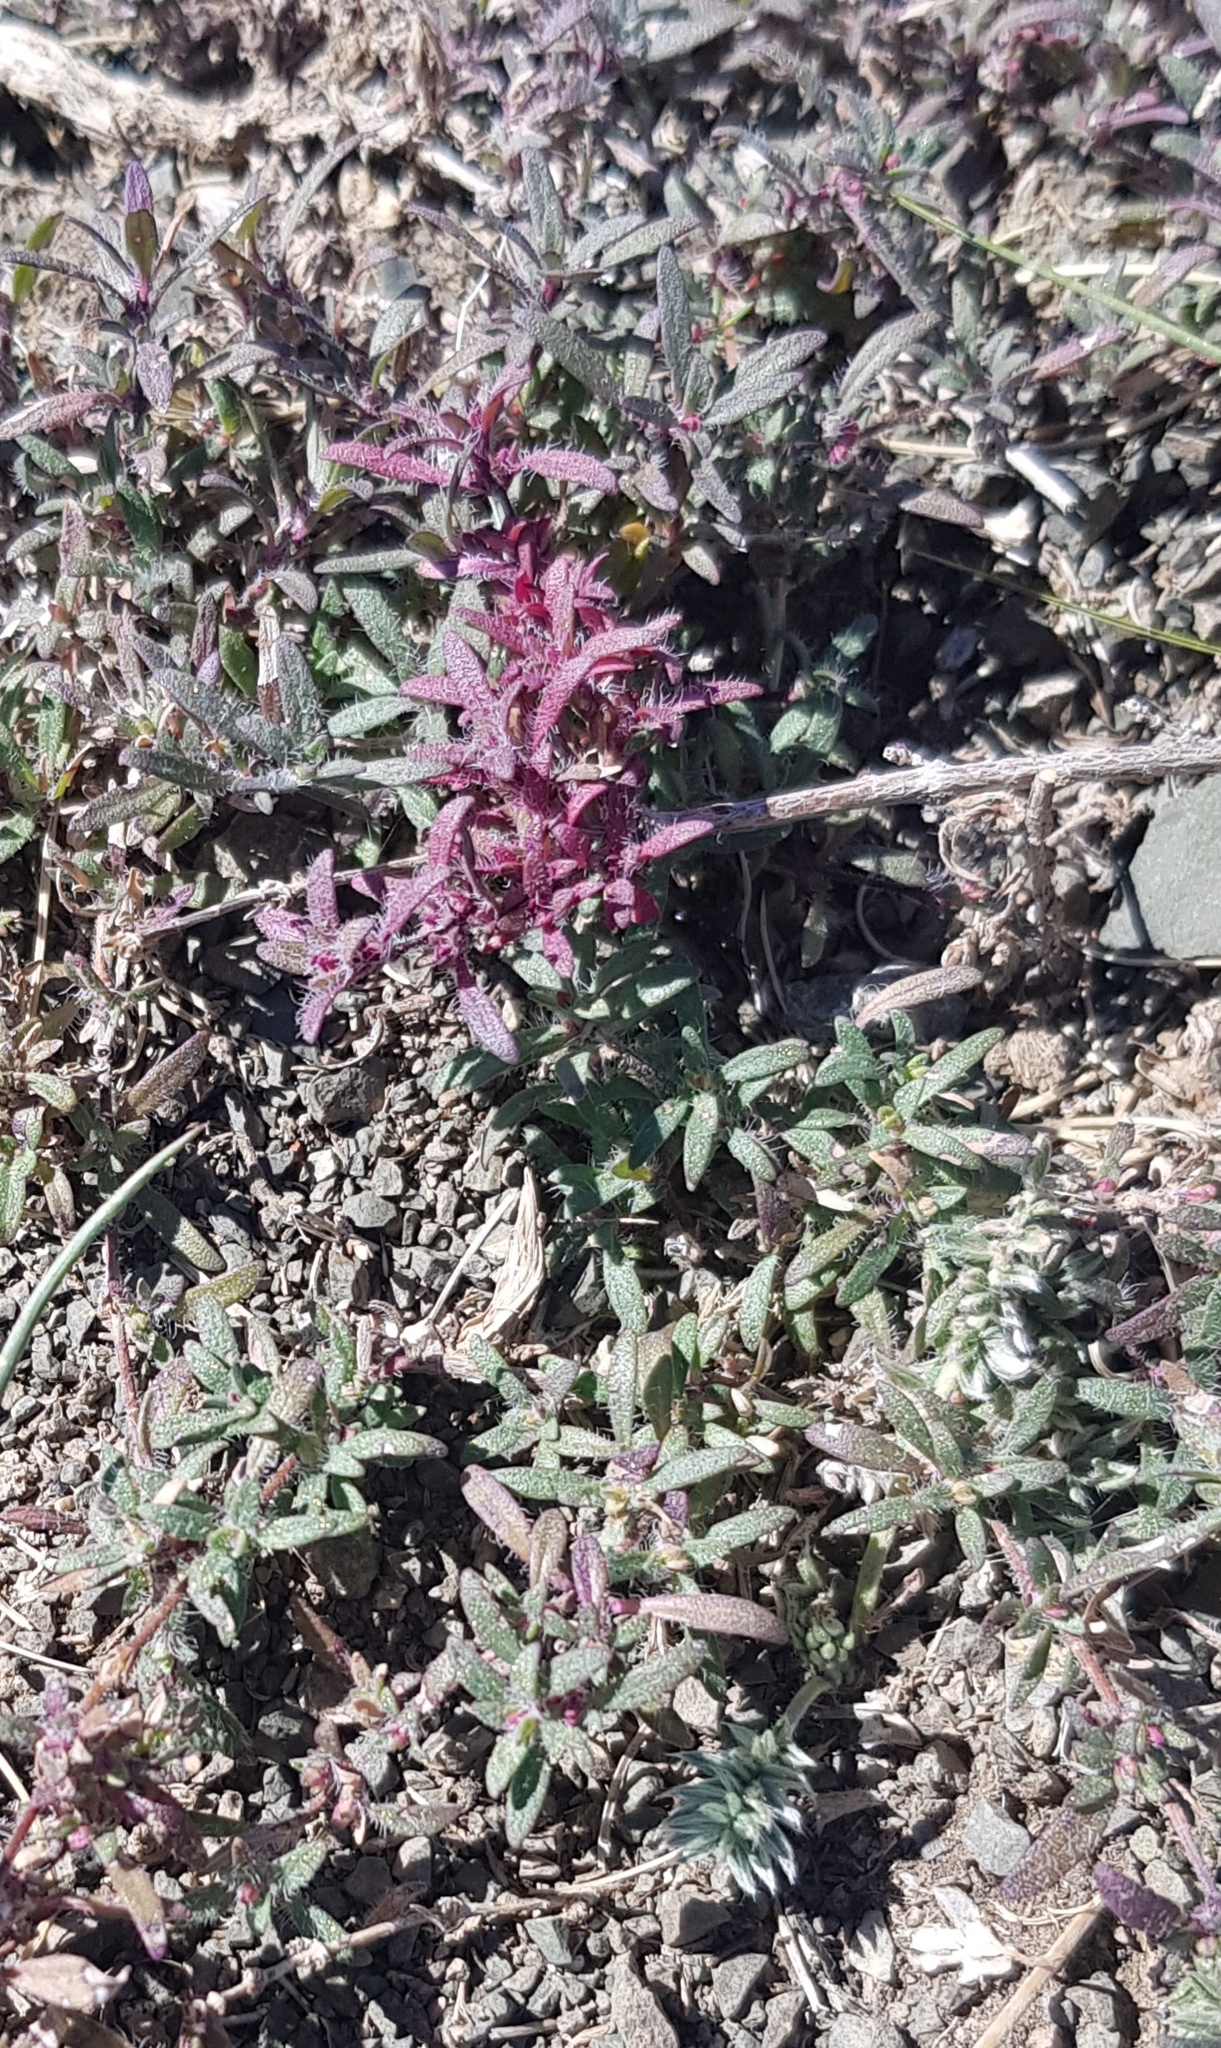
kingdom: Plantae
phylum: Tracheophyta
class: Magnoliopsida
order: Lamiales
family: Lamiaceae
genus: Thymus
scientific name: Thymus gobicus
